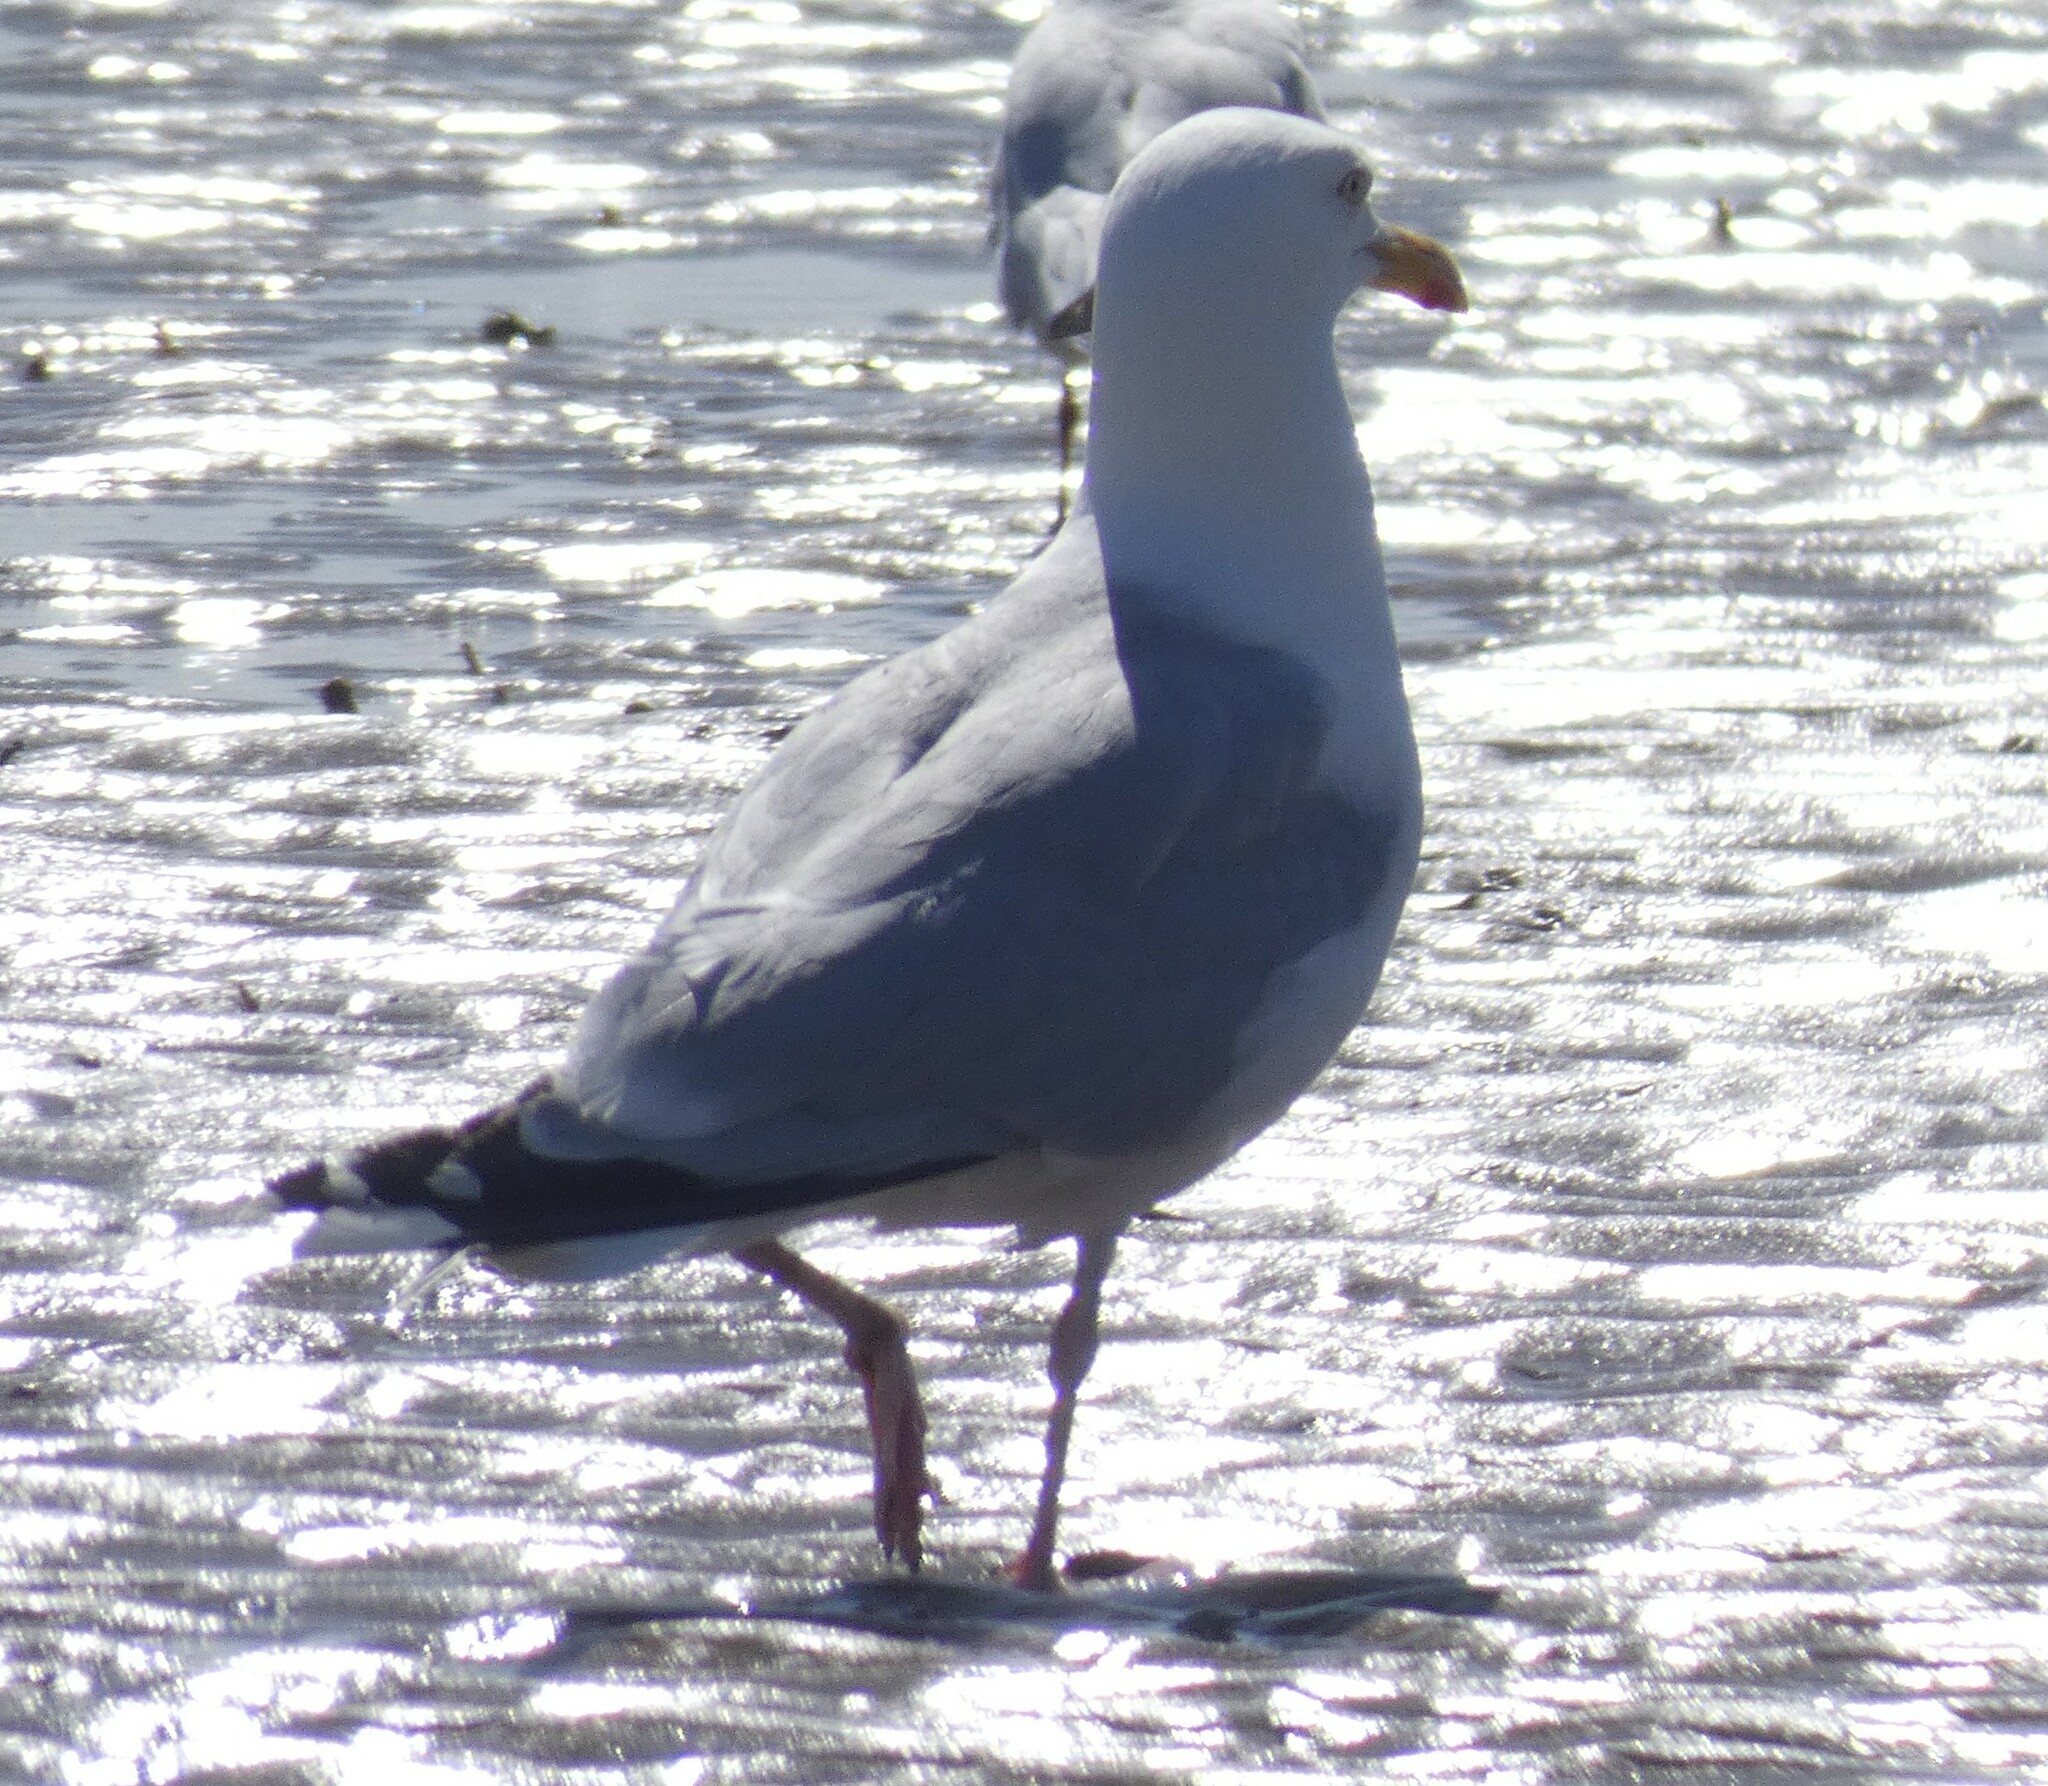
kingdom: Animalia
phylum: Chordata
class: Aves
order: Charadriiformes
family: Laridae
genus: Larus
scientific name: Larus argentatus
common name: Herring gull
